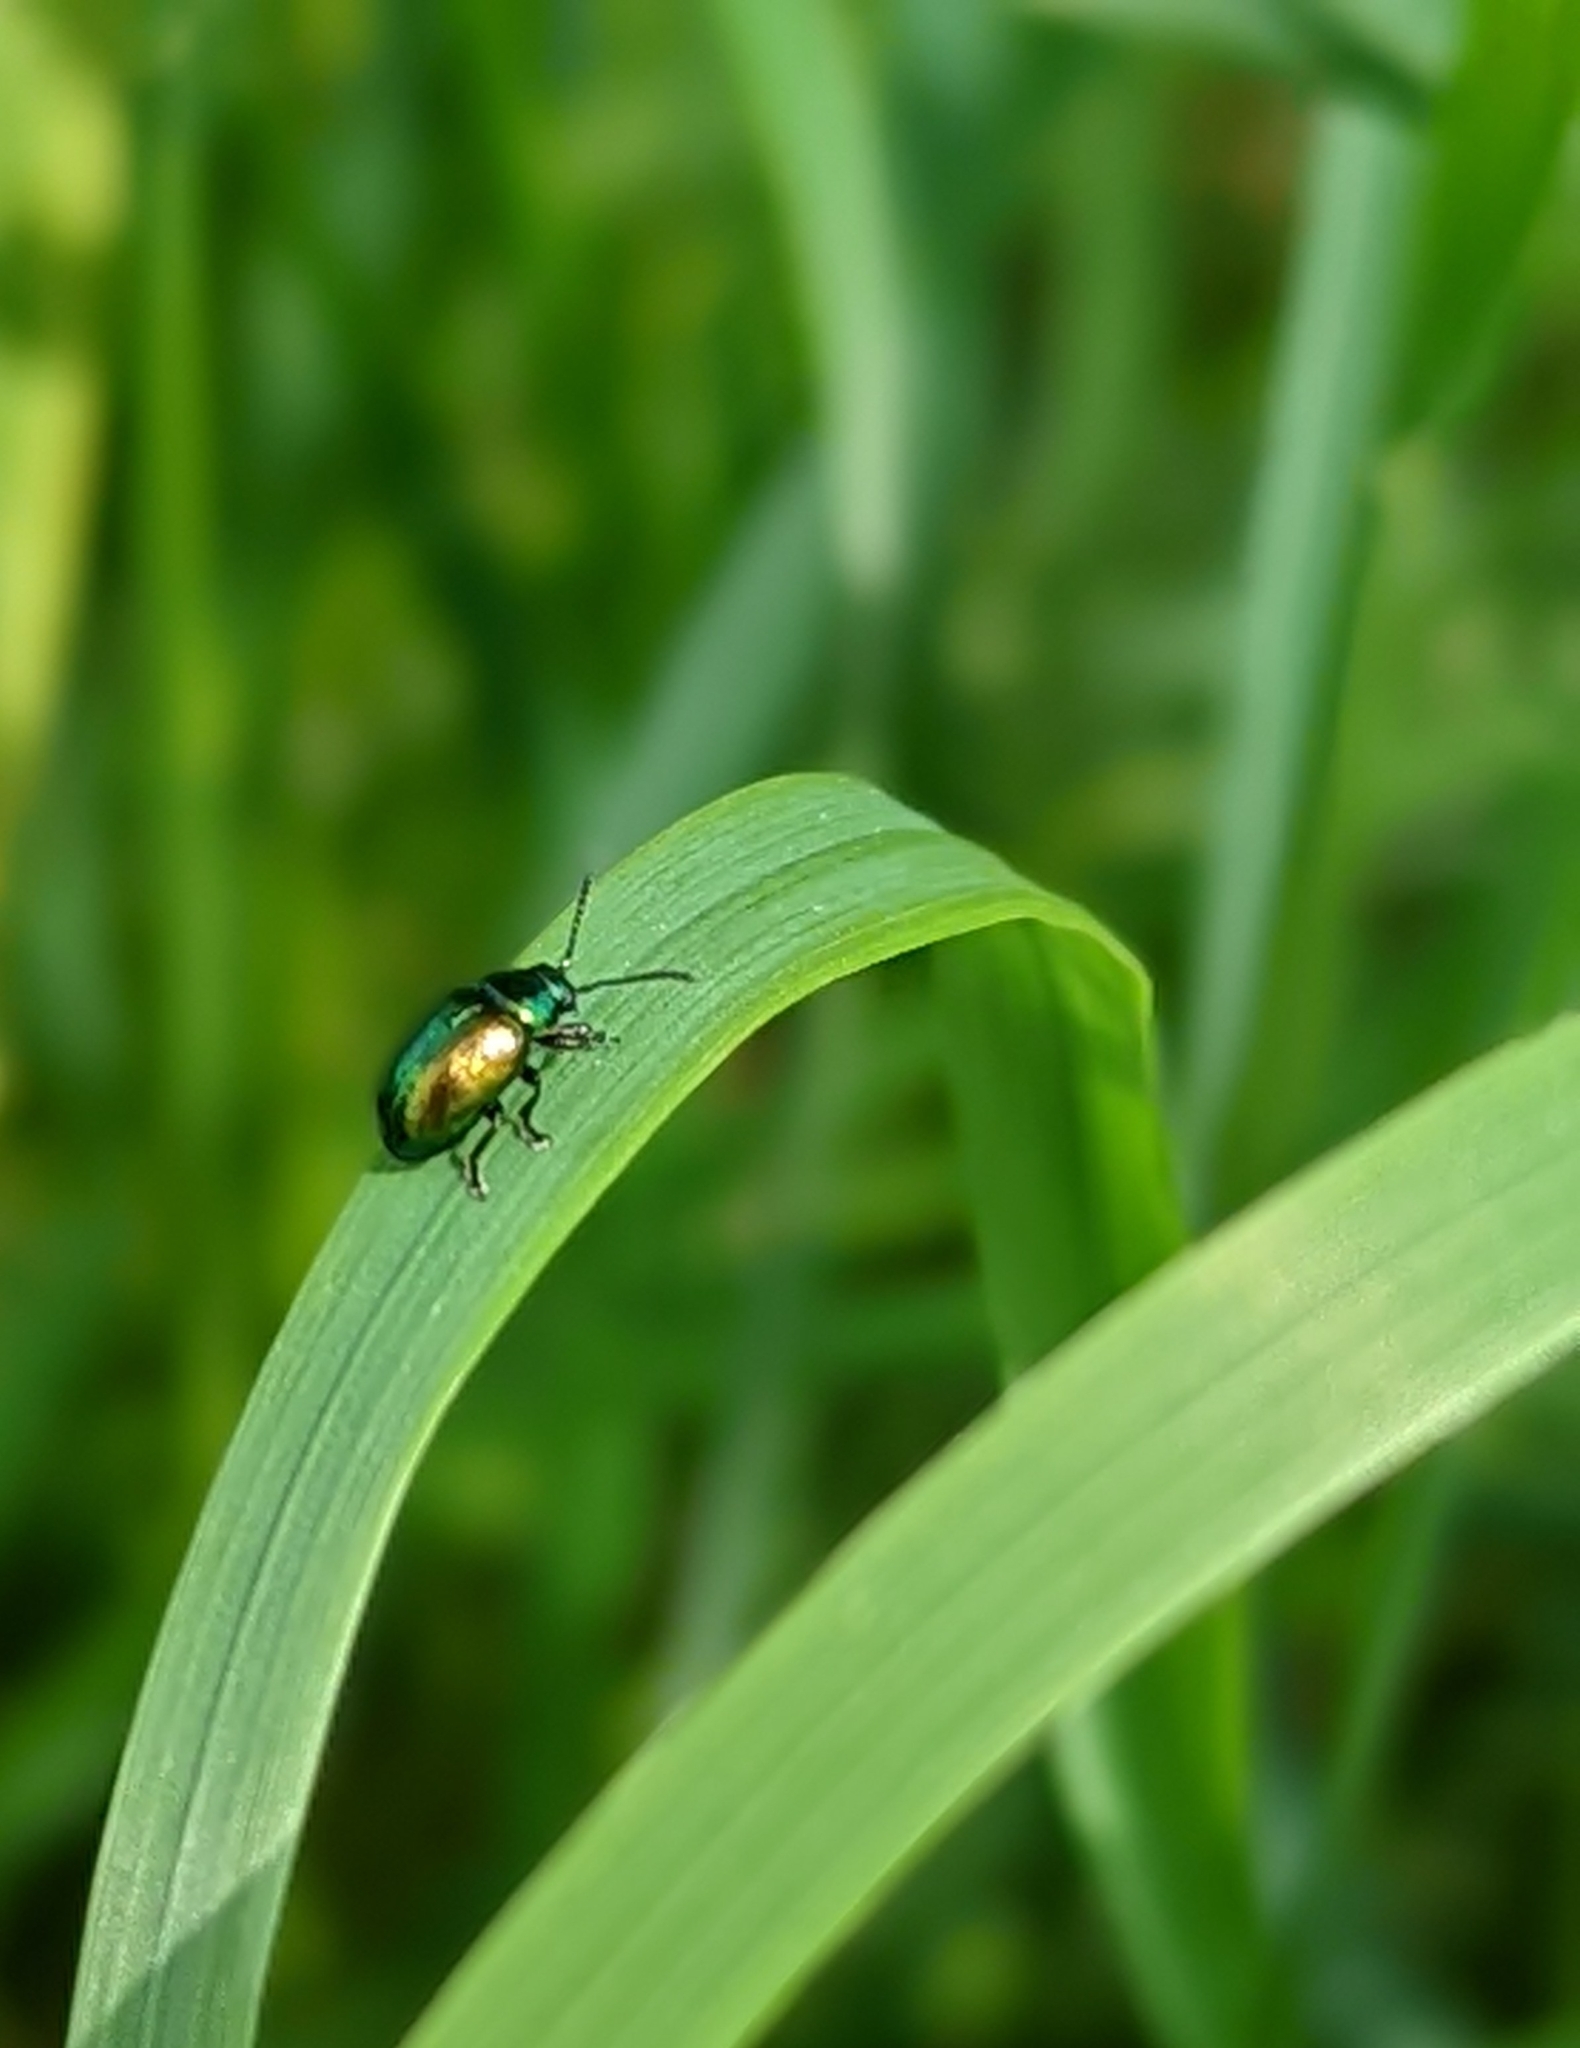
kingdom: Animalia
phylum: Arthropoda
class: Insecta
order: Coleoptera
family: Chrysomelidae
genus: Gastrophysa
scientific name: Gastrophysa viridula
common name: Green dock beetle
